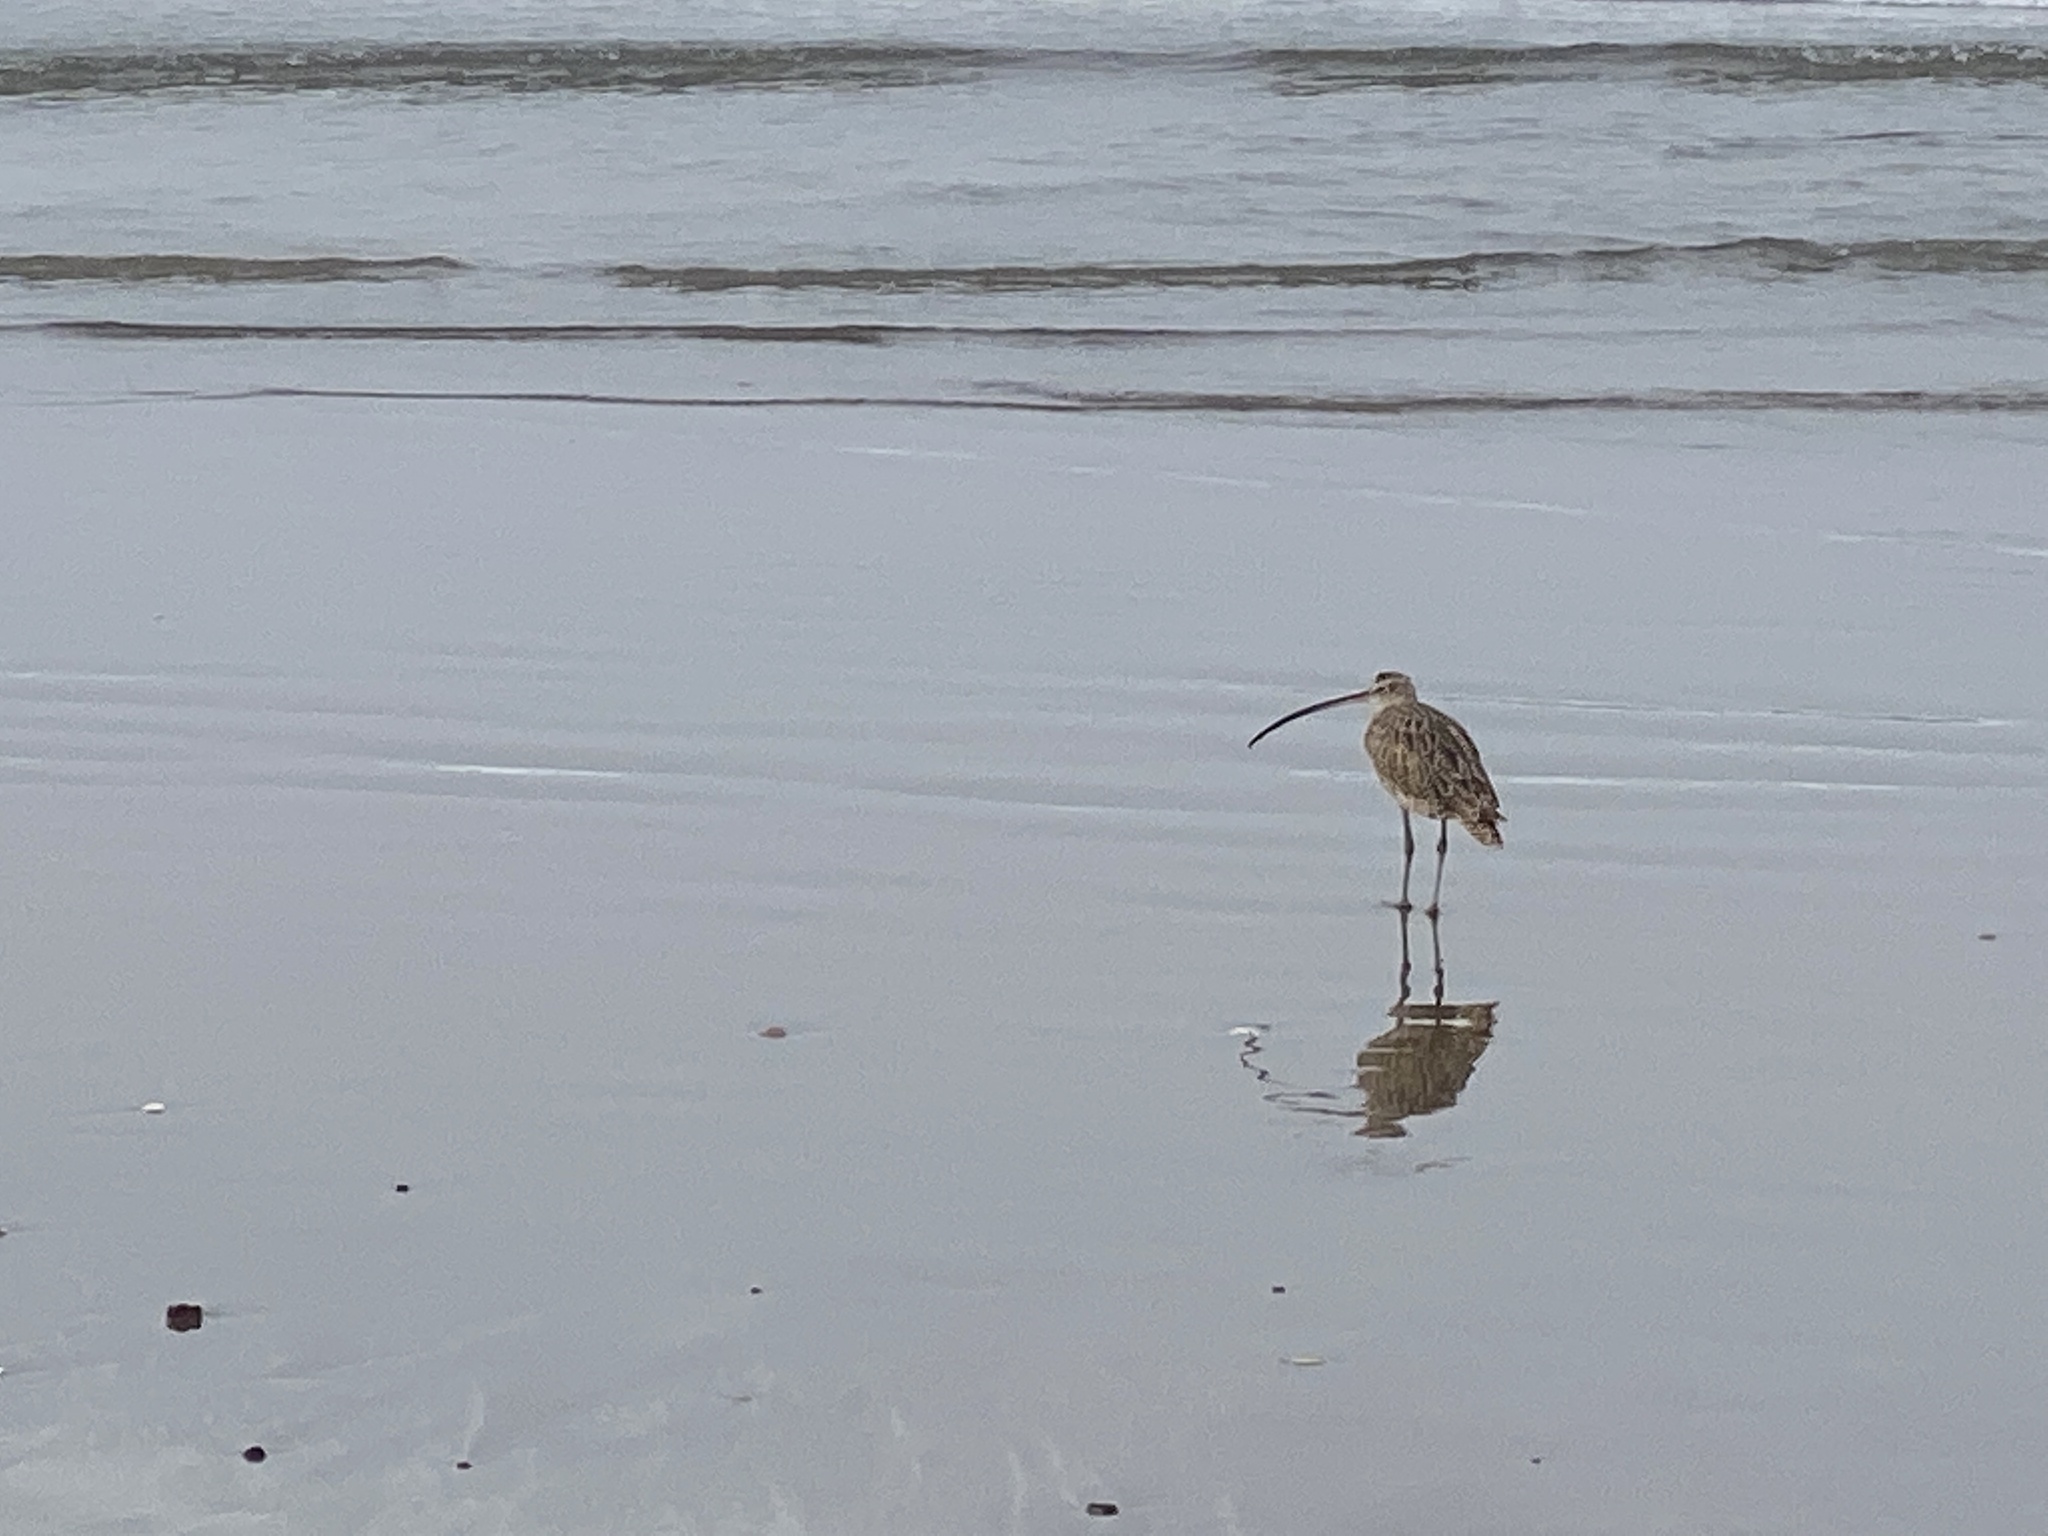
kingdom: Animalia
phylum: Chordata
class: Aves
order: Charadriiformes
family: Scolopacidae
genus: Numenius
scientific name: Numenius americanus
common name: Long-billed curlew
